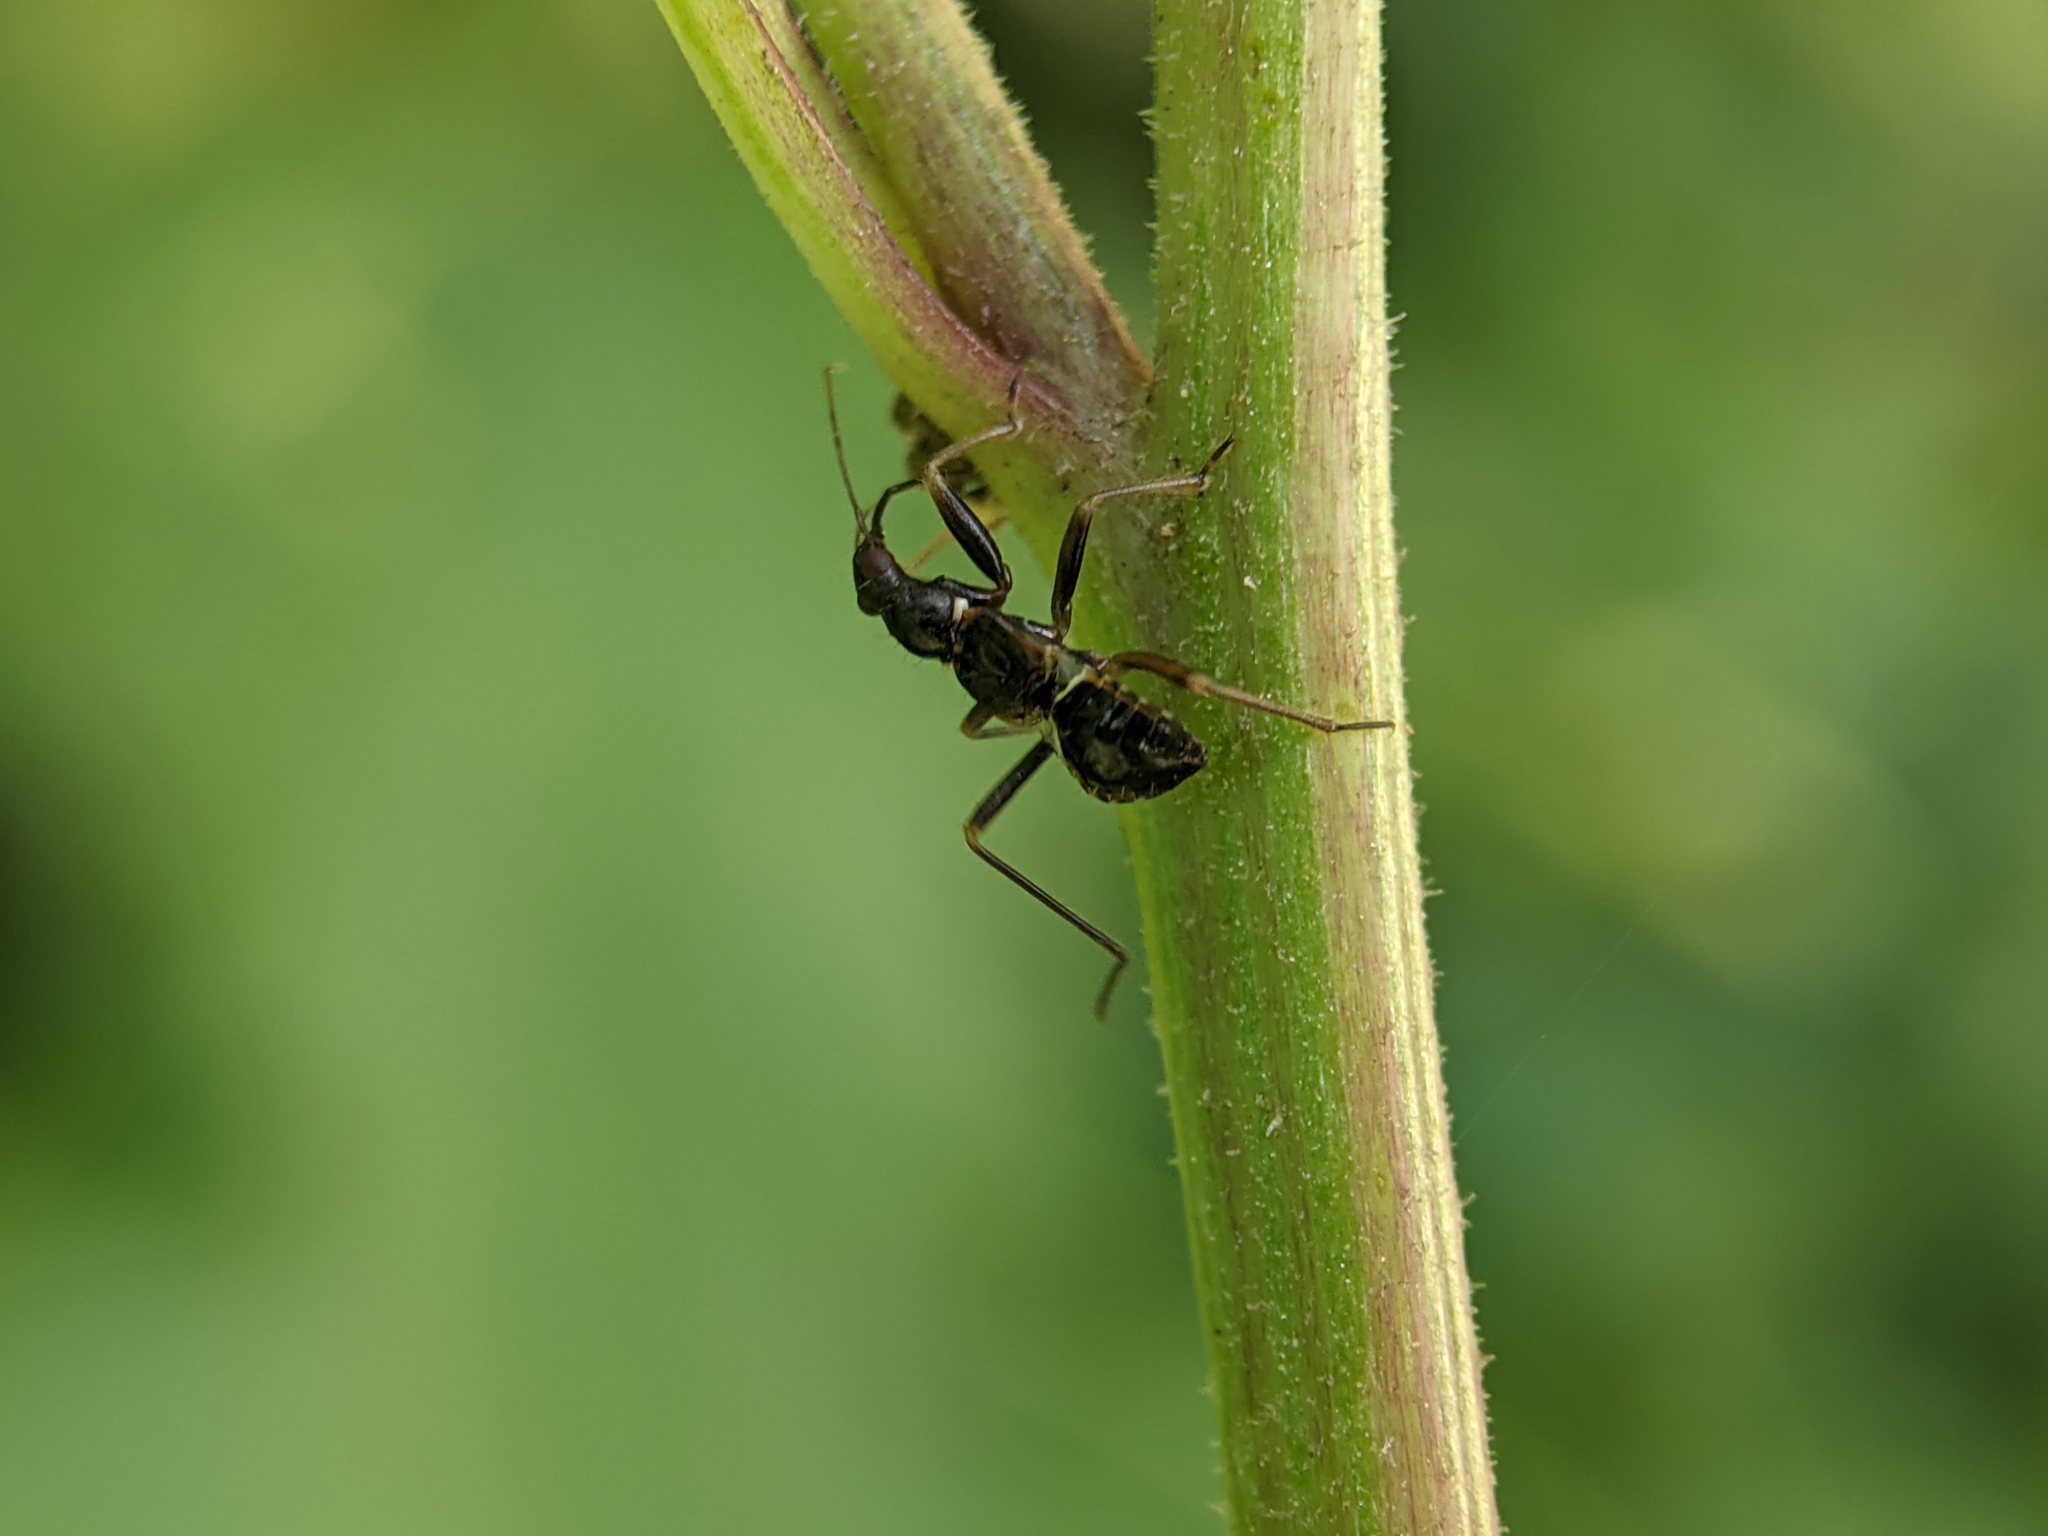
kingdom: Animalia
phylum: Arthropoda
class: Insecta
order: Hemiptera
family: Nabidae
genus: Himacerus
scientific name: Himacerus mirmicoides
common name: Ant damsel bug
